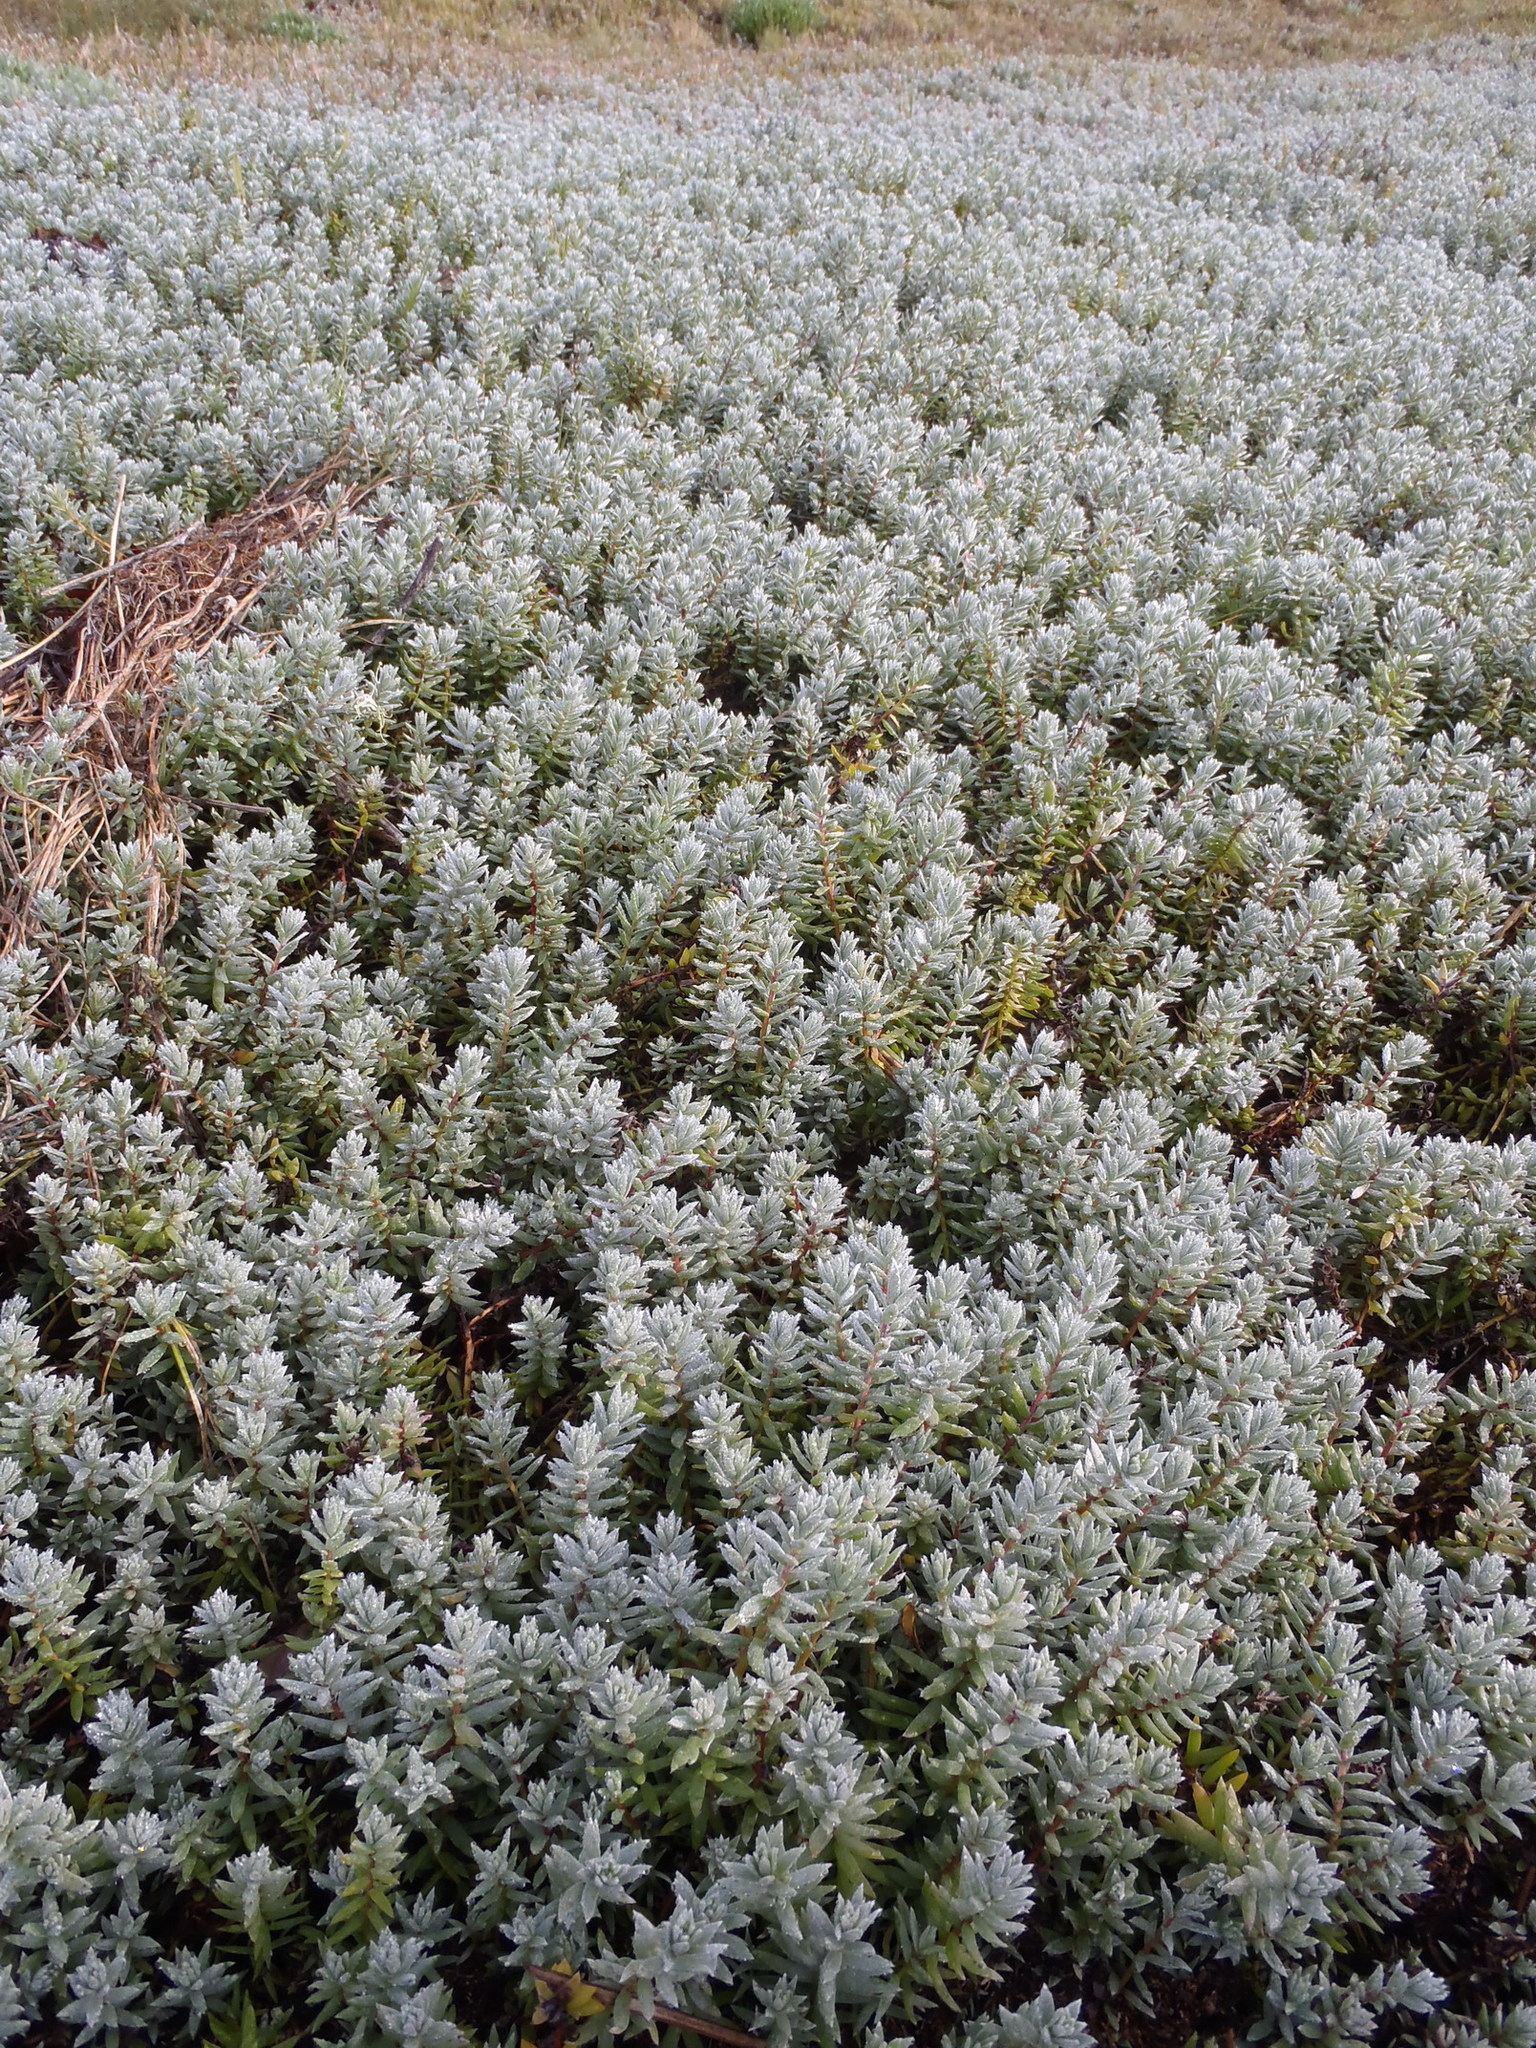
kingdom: Plantae
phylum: Tracheophyta
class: Magnoliopsida
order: Caryophyllales
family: Amaranthaceae
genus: Chenolea
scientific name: Chenolea diffusa
